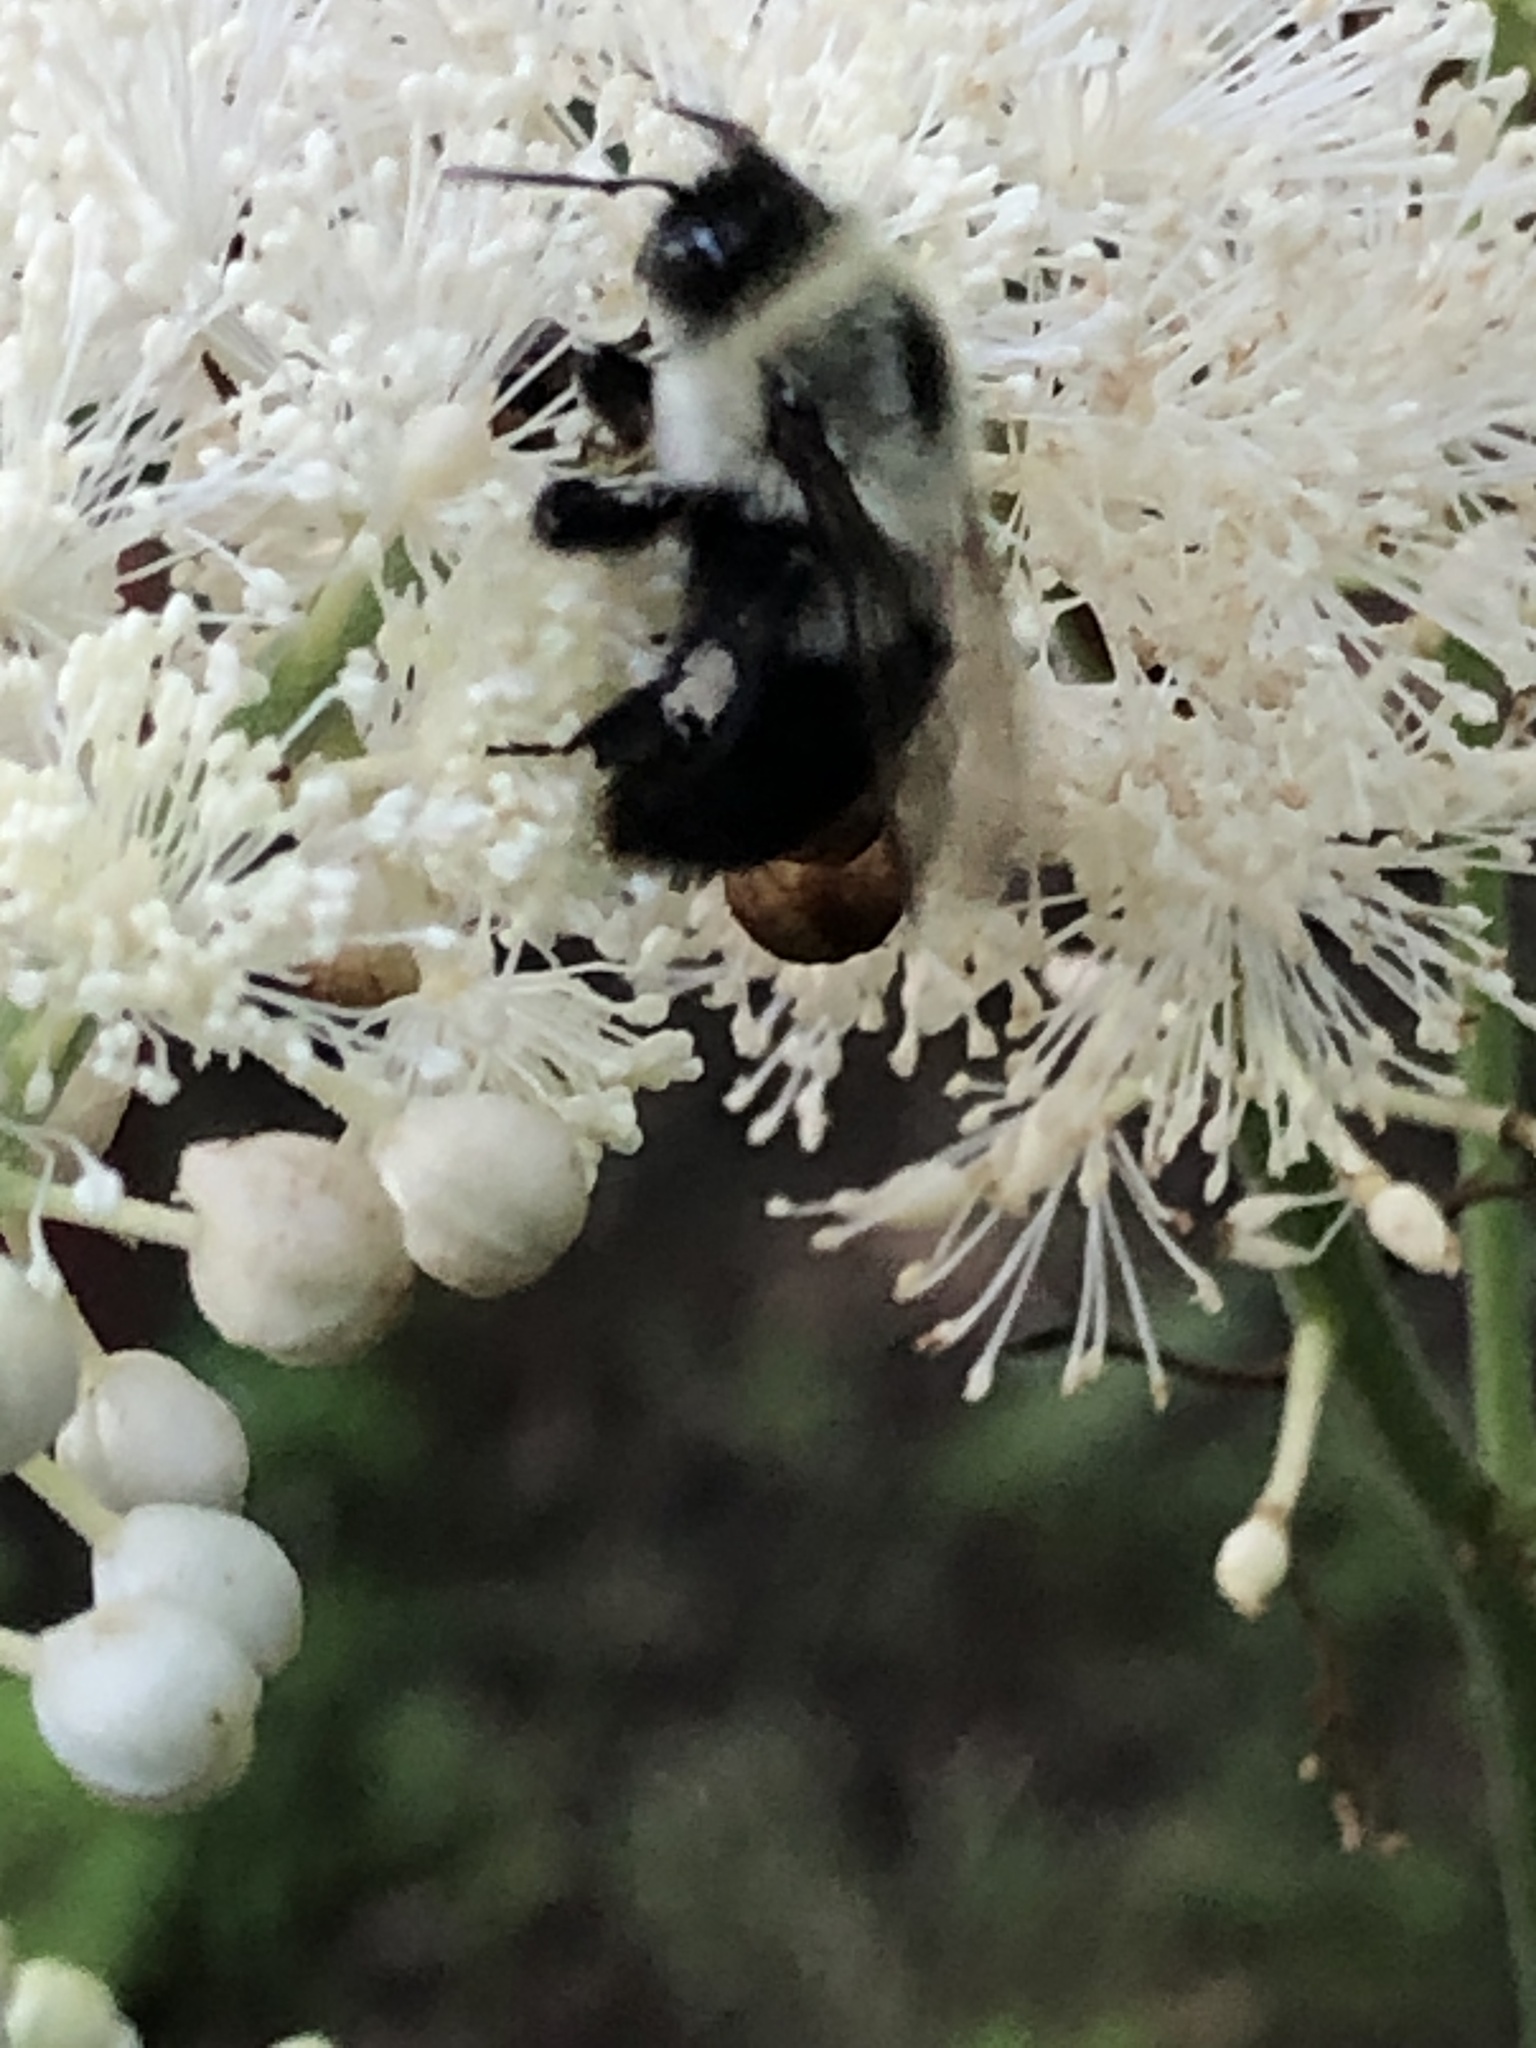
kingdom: Animalia
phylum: Arthropoda
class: Insecta
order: Hymenoptera
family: Apidae
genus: Bombus
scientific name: Bombus impatiens
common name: Common eastern bumble bee
